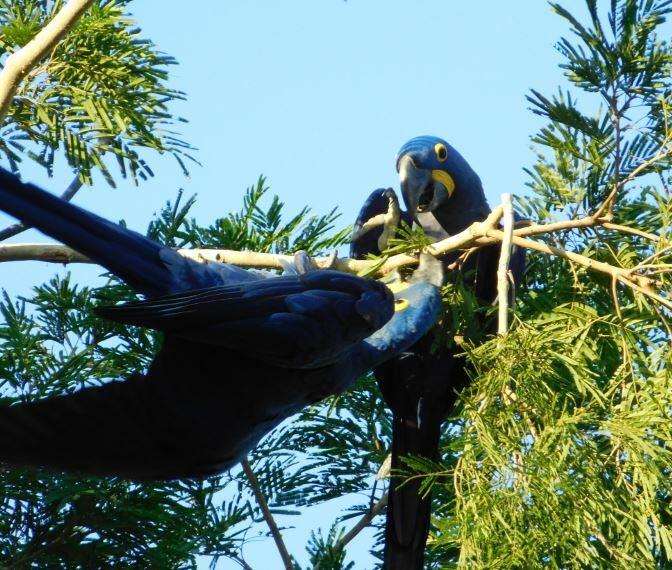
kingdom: Animalia
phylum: Chordata
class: Aves
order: Psittaciformes
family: Psittacidae
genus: Anodorhynchus
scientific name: Anodorhynchus hyacinthinus
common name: Hyacinth macaw
